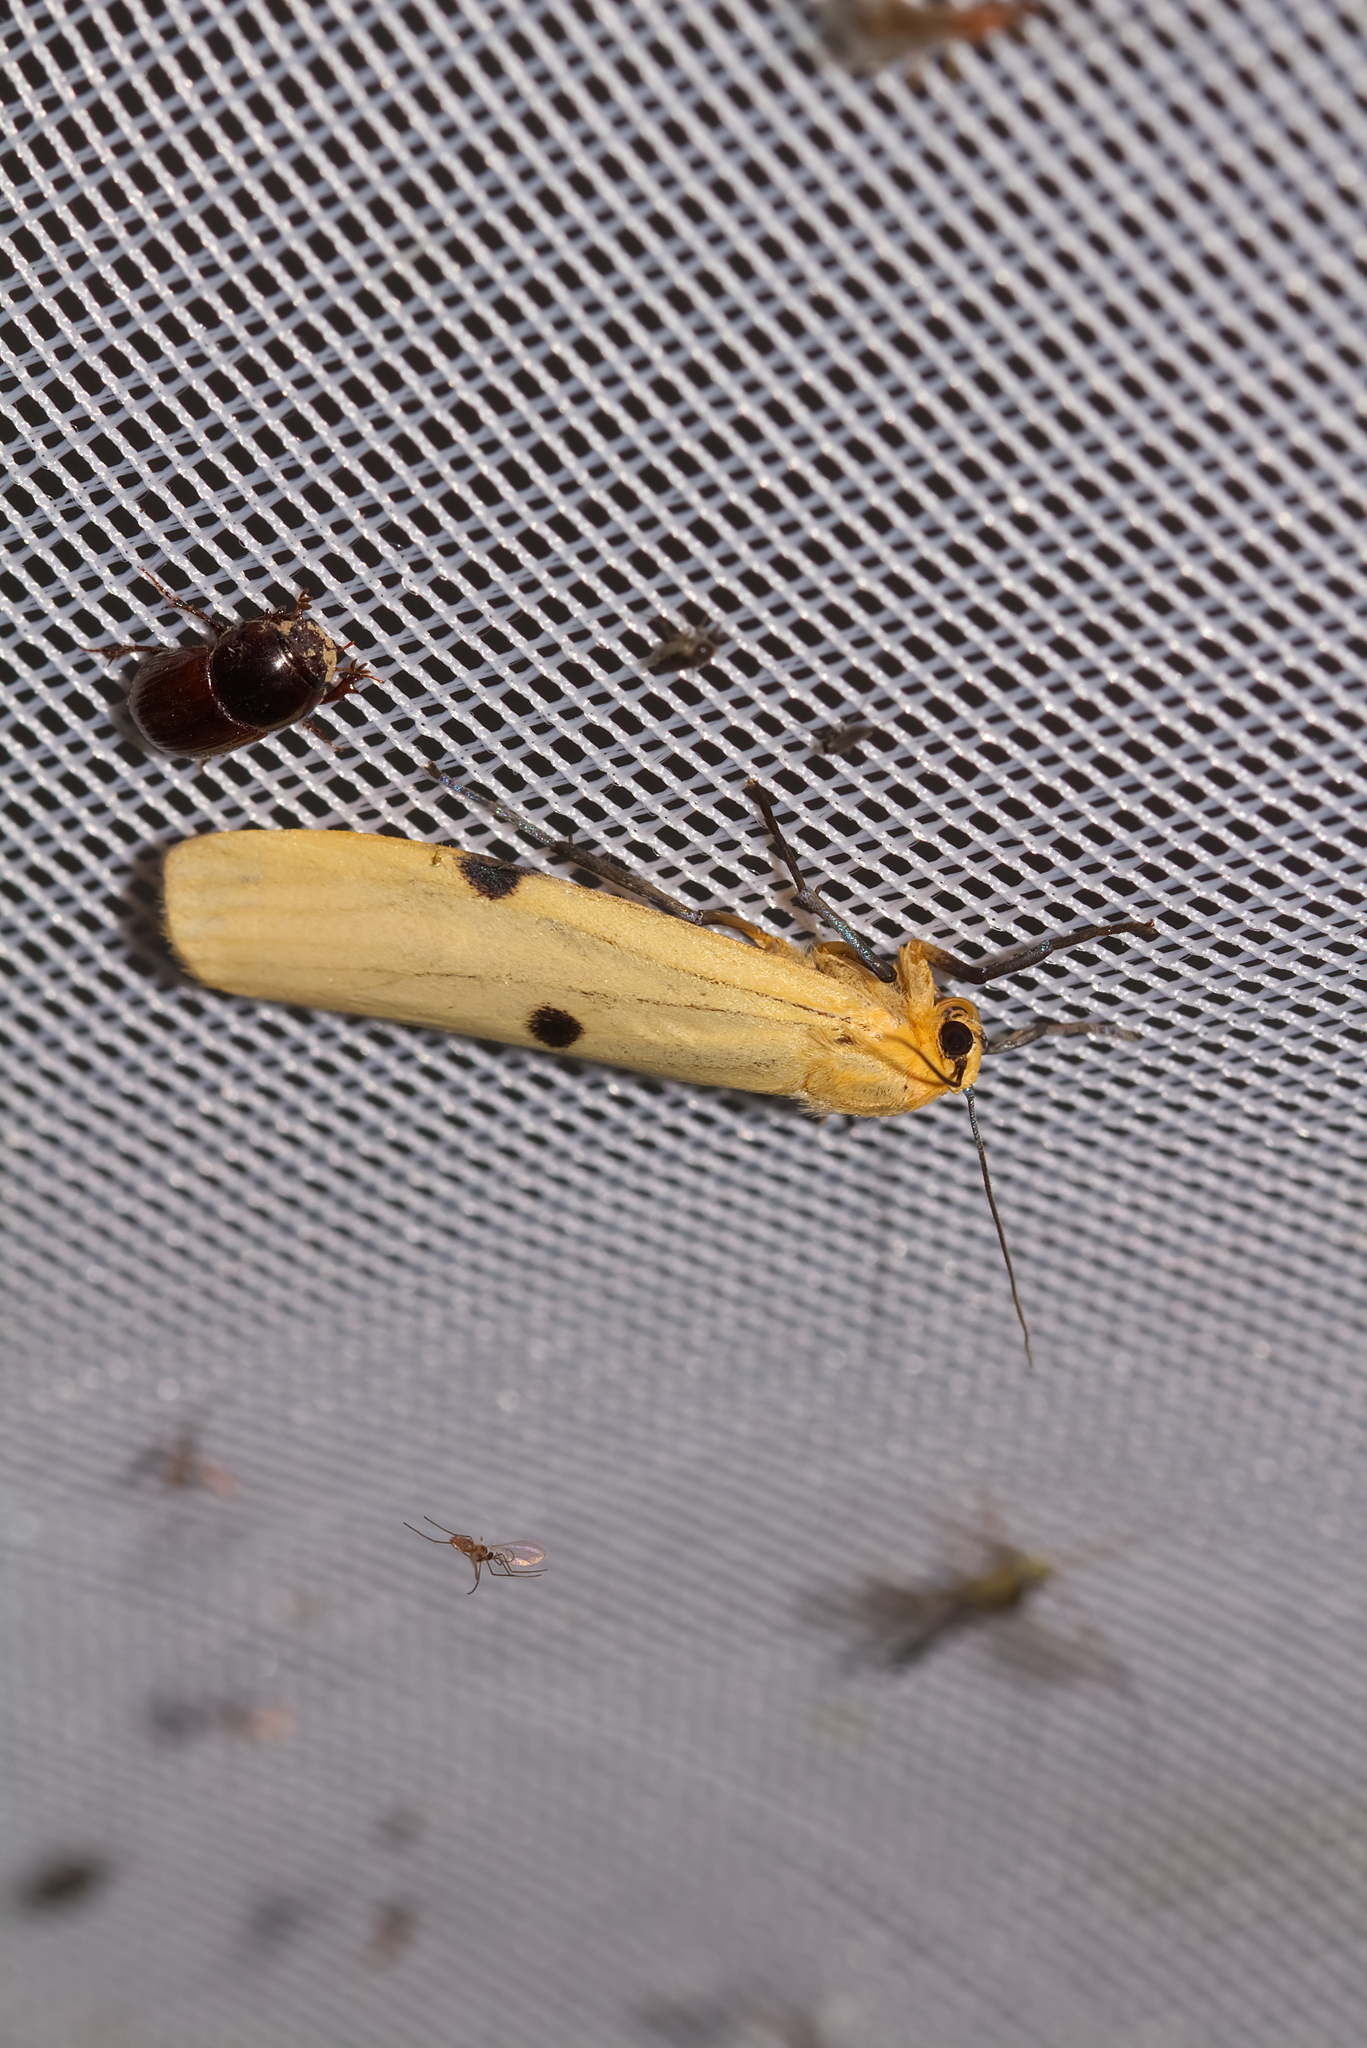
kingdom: Animalia
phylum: Arthropoda
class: Insecta
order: Lepidoptera
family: Erebidae
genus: Lithosia
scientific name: Lithosia quadra
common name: Four-spotted footman
